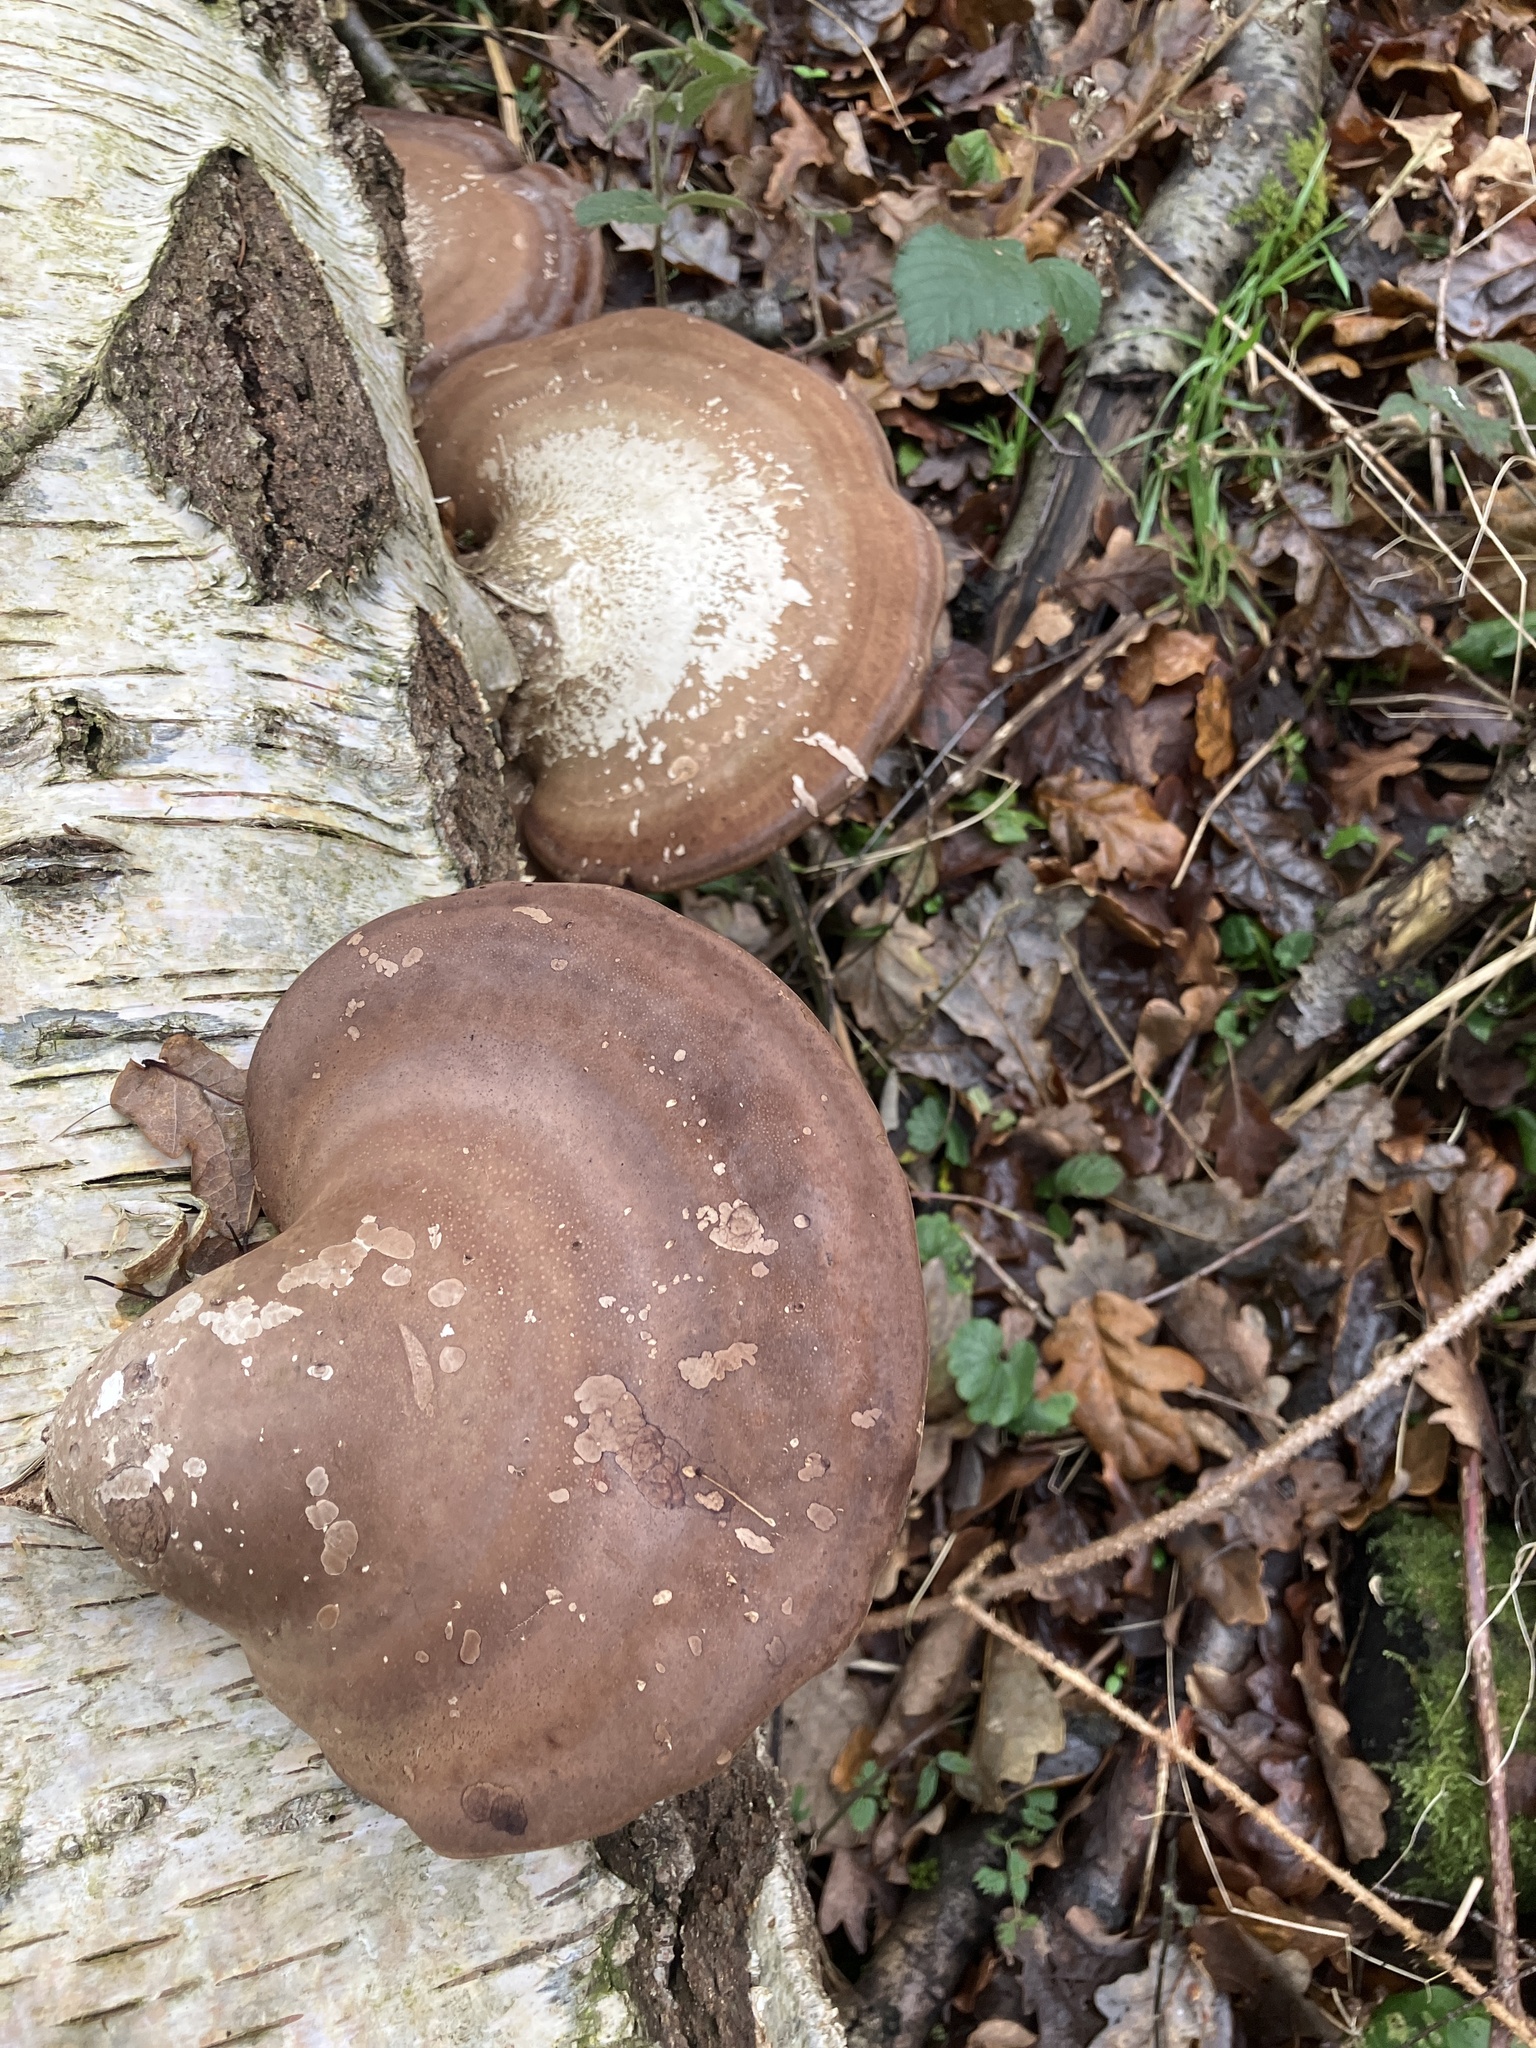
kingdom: Fungi
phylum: Basidiomycota
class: Agaricomycetes
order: Polyporales
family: Fomitopsidaceae
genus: Fomitopsis
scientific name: Fomitopsis betulina
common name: Birch polypore
